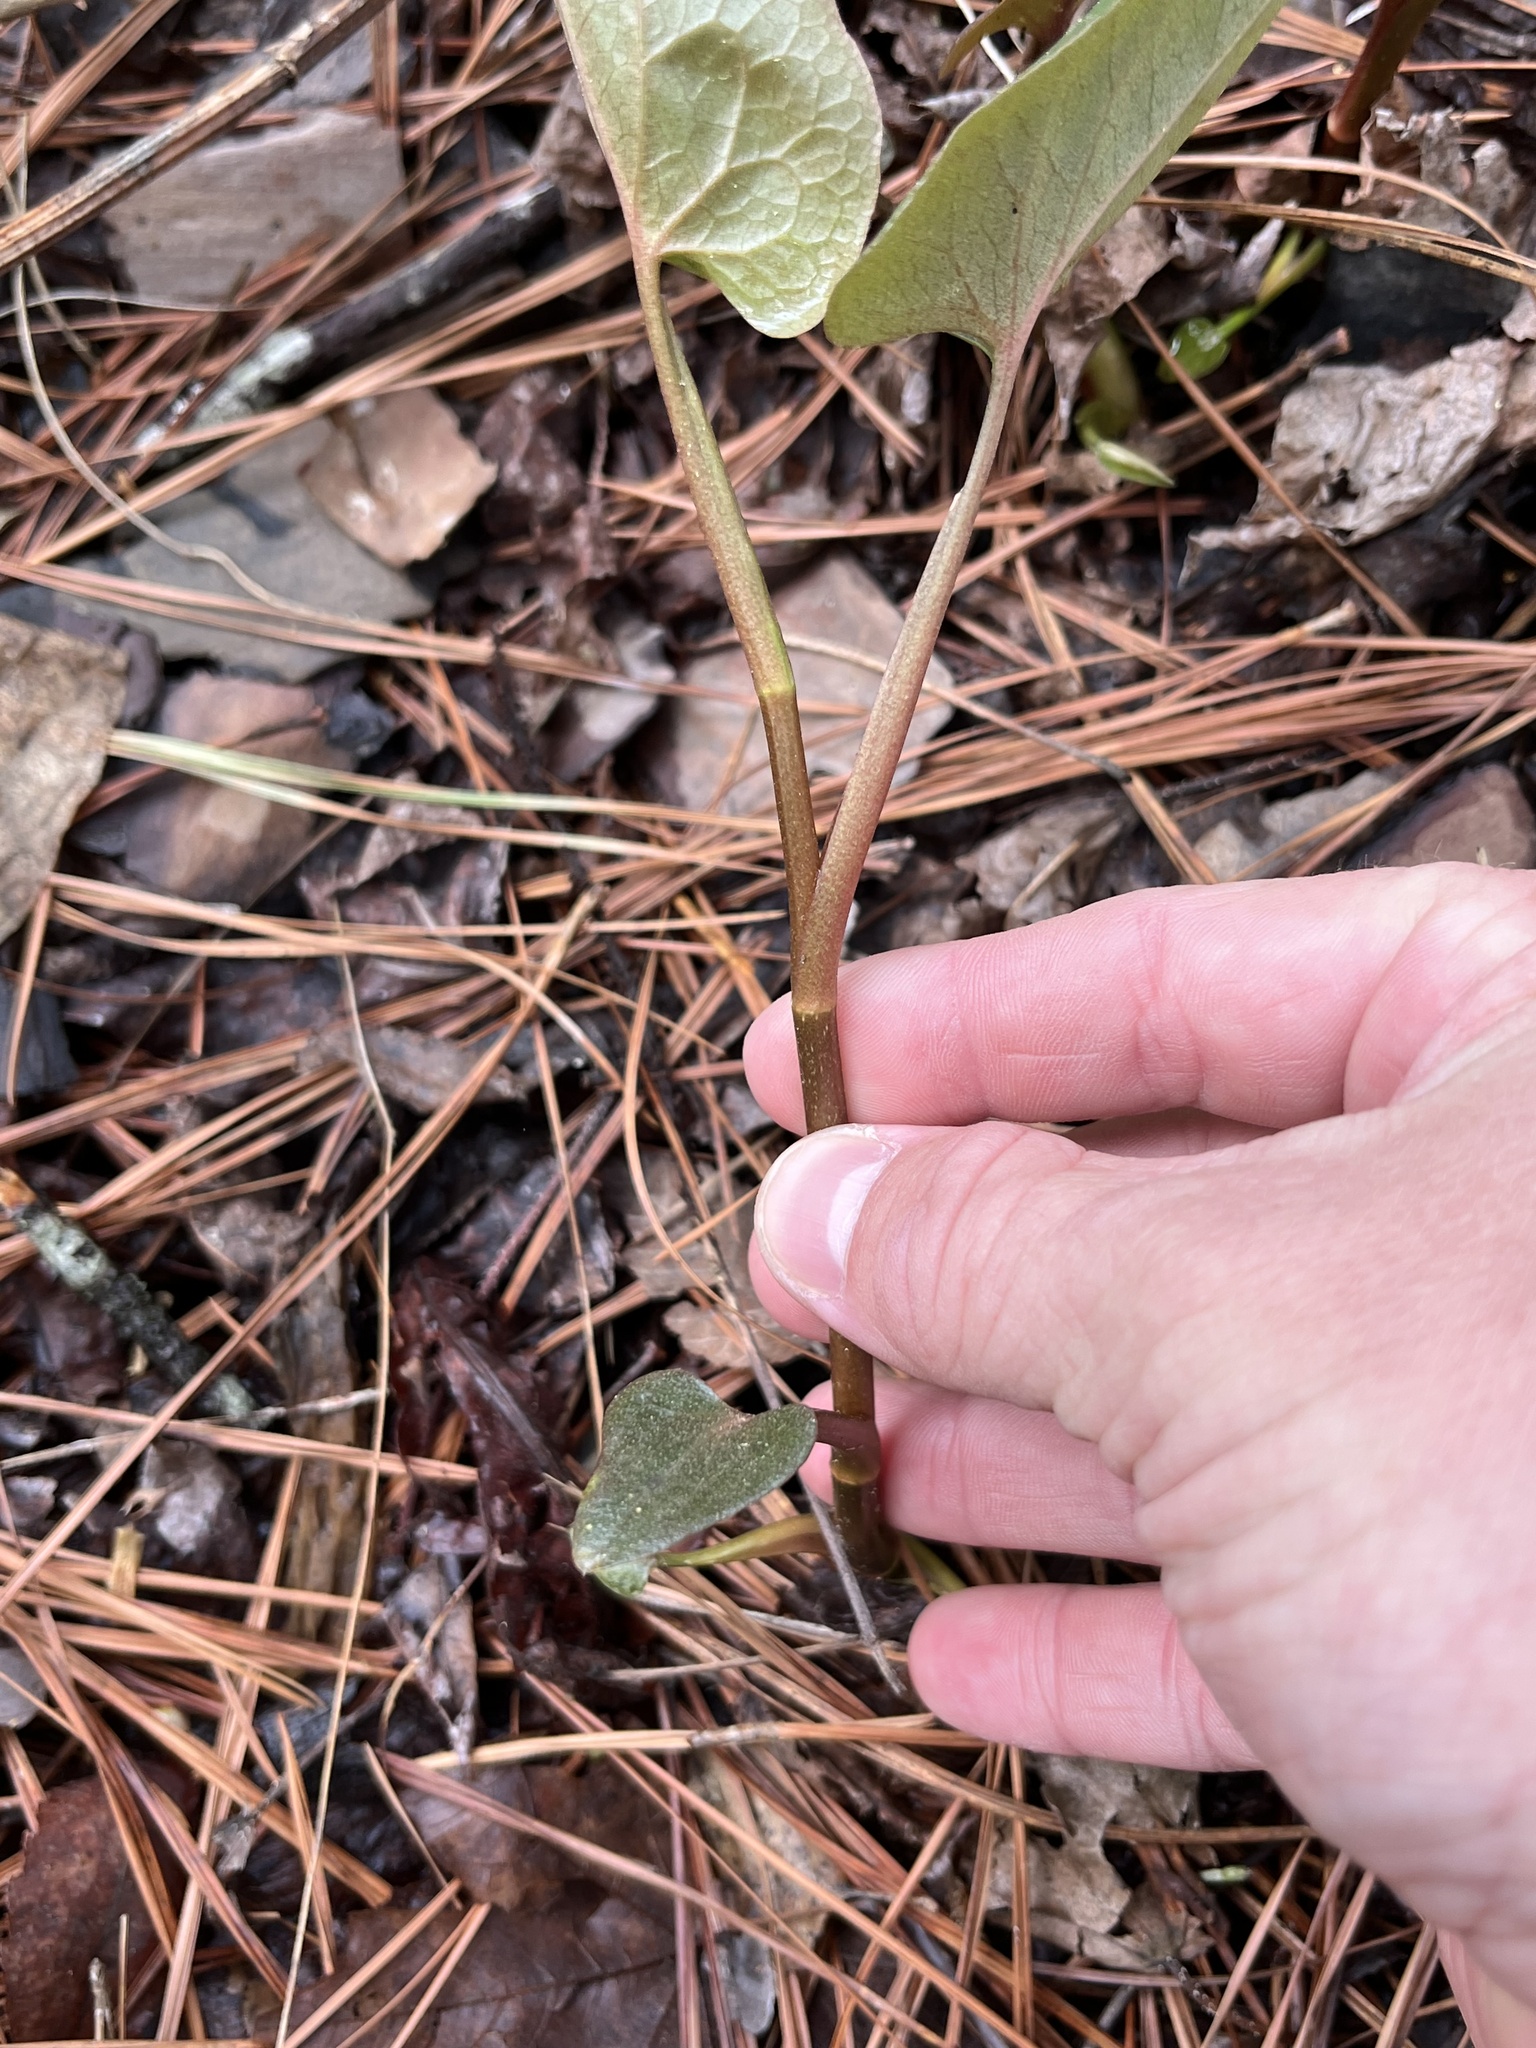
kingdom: Plantae
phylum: Tracheophyta
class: Magnoliopsida
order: Piperales
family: Saururaceae
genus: Saururus
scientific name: Saururus cernuus
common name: Lizard's-tail
